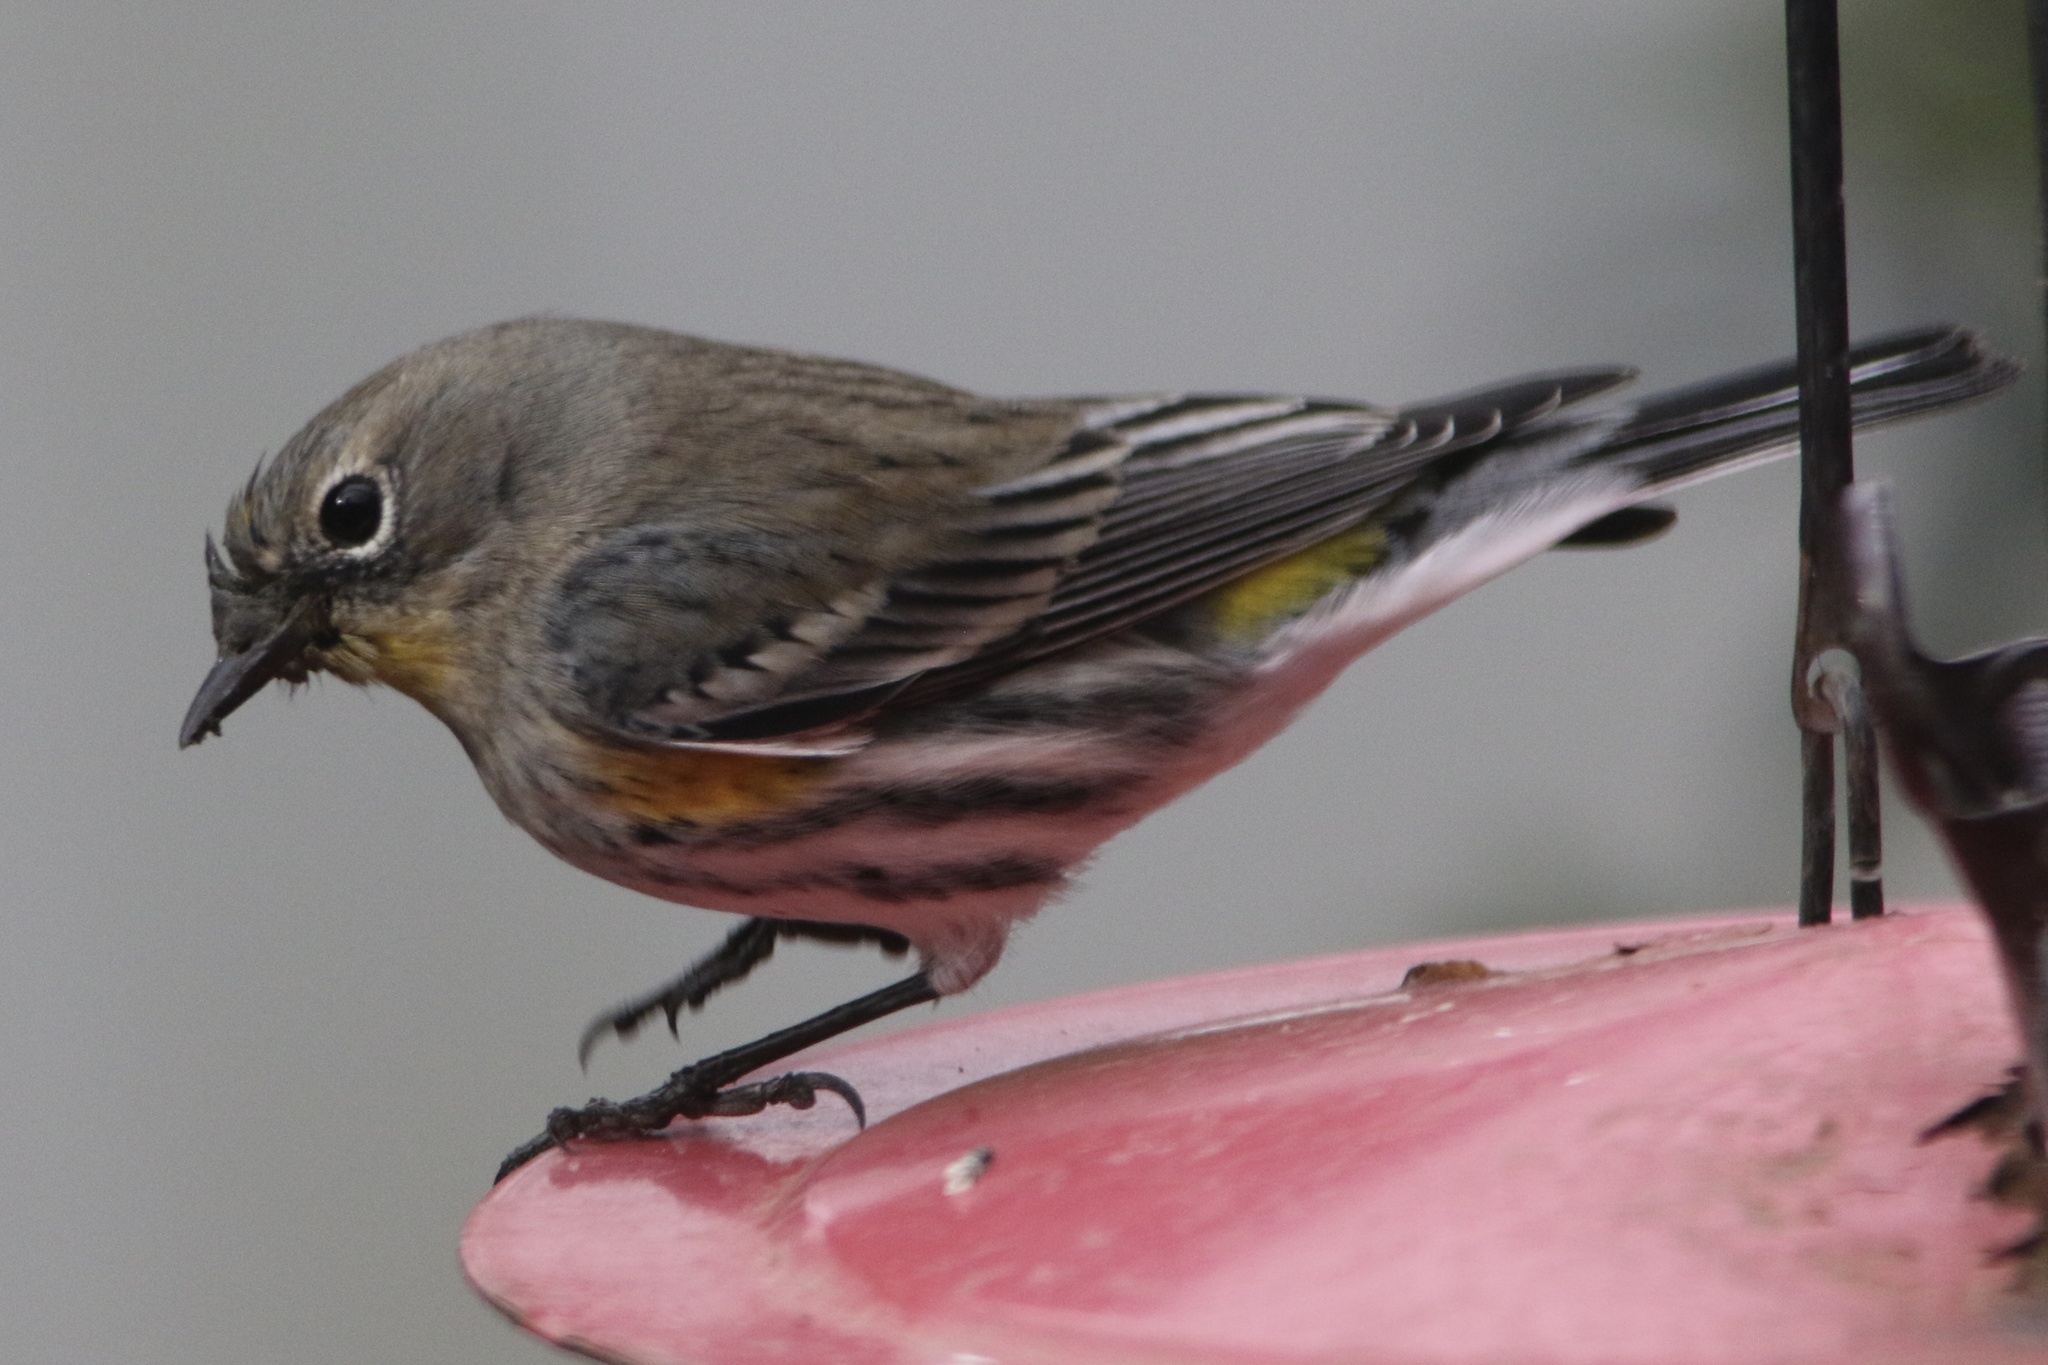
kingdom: Animalia
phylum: Chordata
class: Aves
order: Passeriformes
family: Parulidae
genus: Setophaga
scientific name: Setophaga coronata
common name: Myrtle warbler
